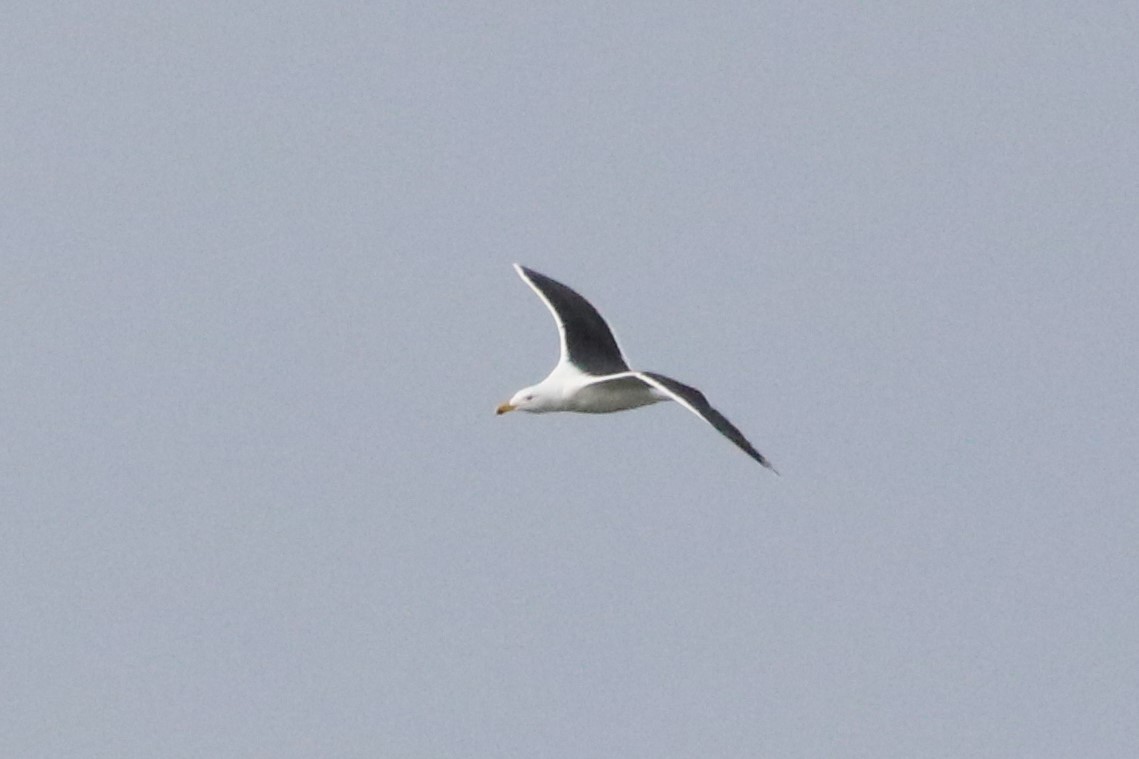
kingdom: Animalia
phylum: Chordata
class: Aves
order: Charadriiformes
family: Laridae
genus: Larus
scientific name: Larus marinus
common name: Great black-backed gull
